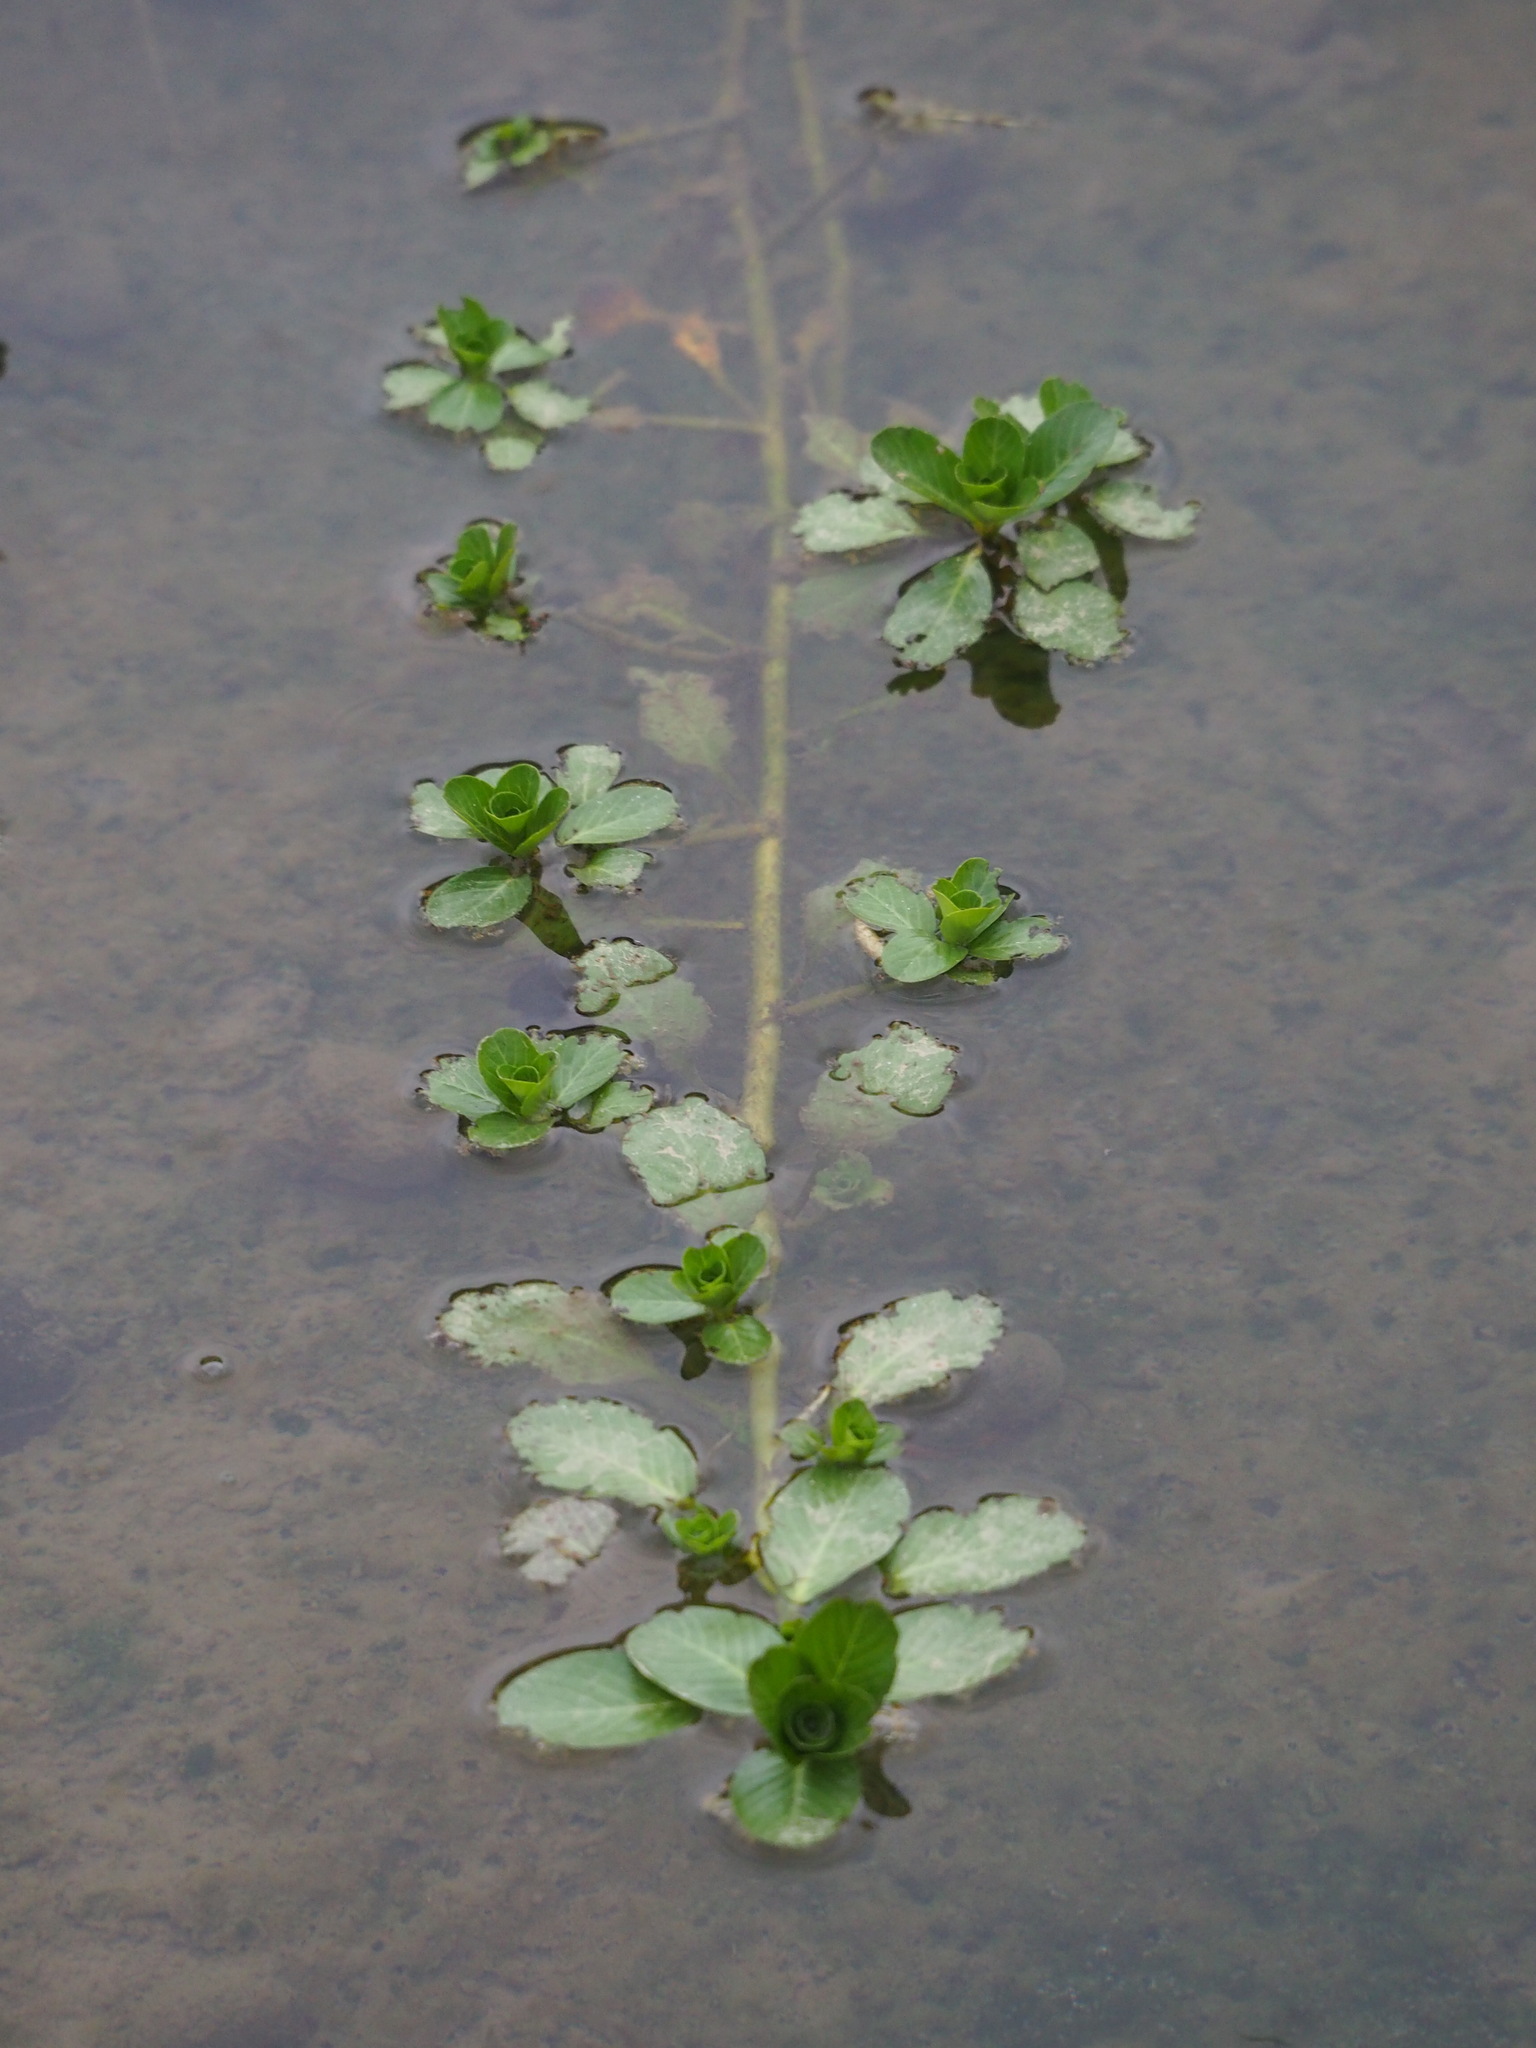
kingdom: Plantae
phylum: Tracheophyta
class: Magnoliopsida
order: Myrtales
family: Onagraceae
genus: Ludwigia
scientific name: Ludwigia taiwanensis
